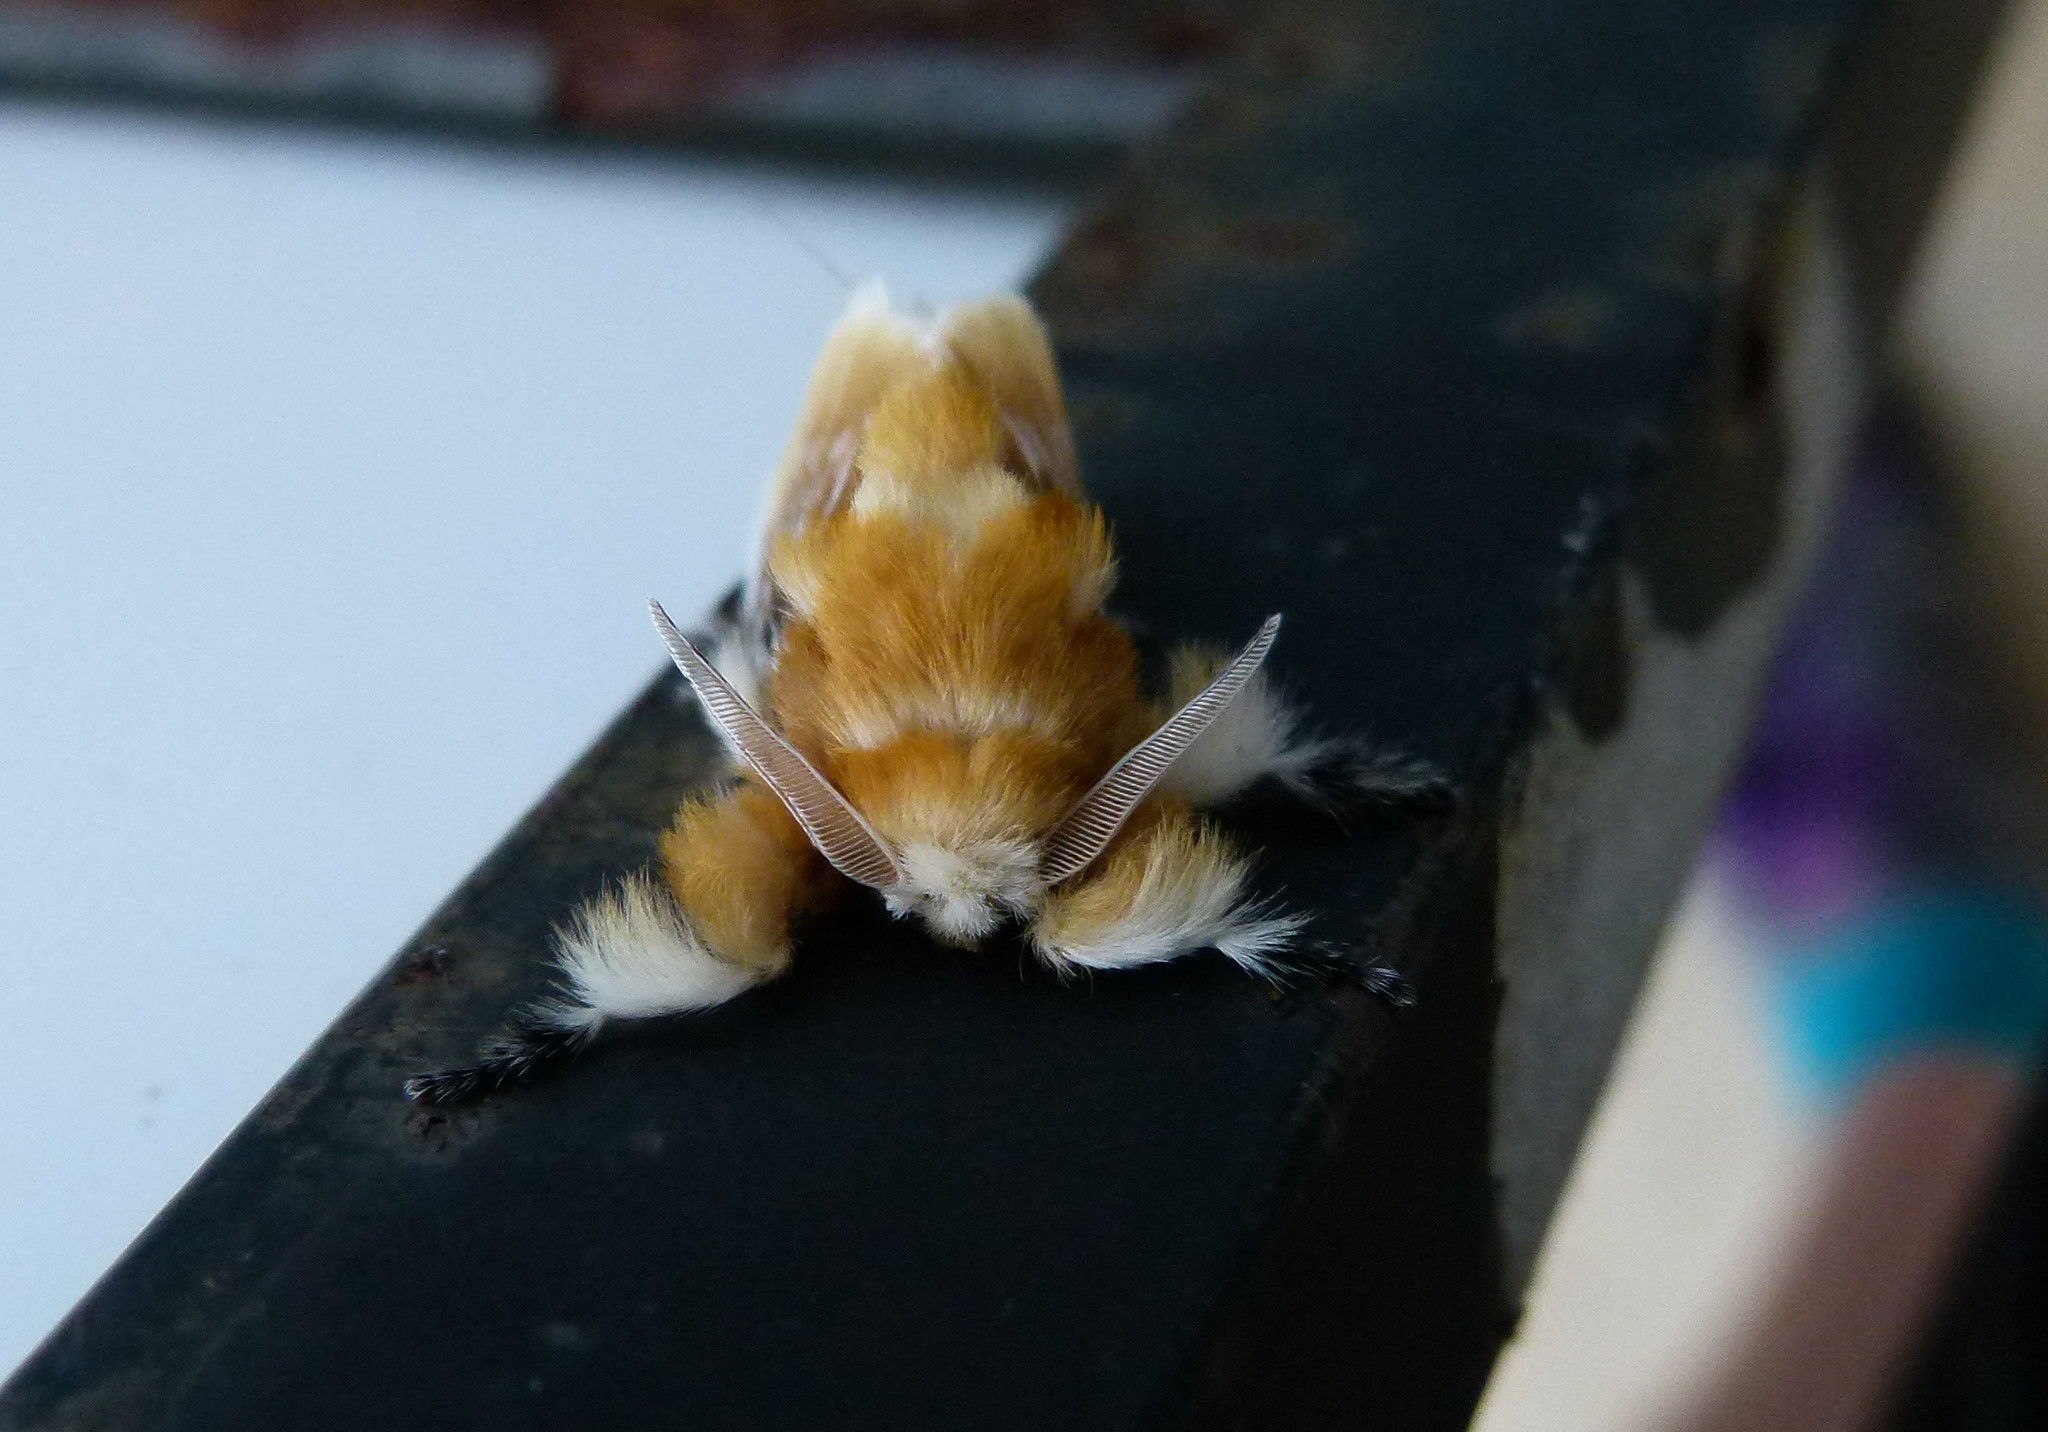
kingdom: Animalia
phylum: Arthropoda
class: Insecta
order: Lepidoptera
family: Megalopygidae
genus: Megalopyge
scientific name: Megalopyge opercularis
